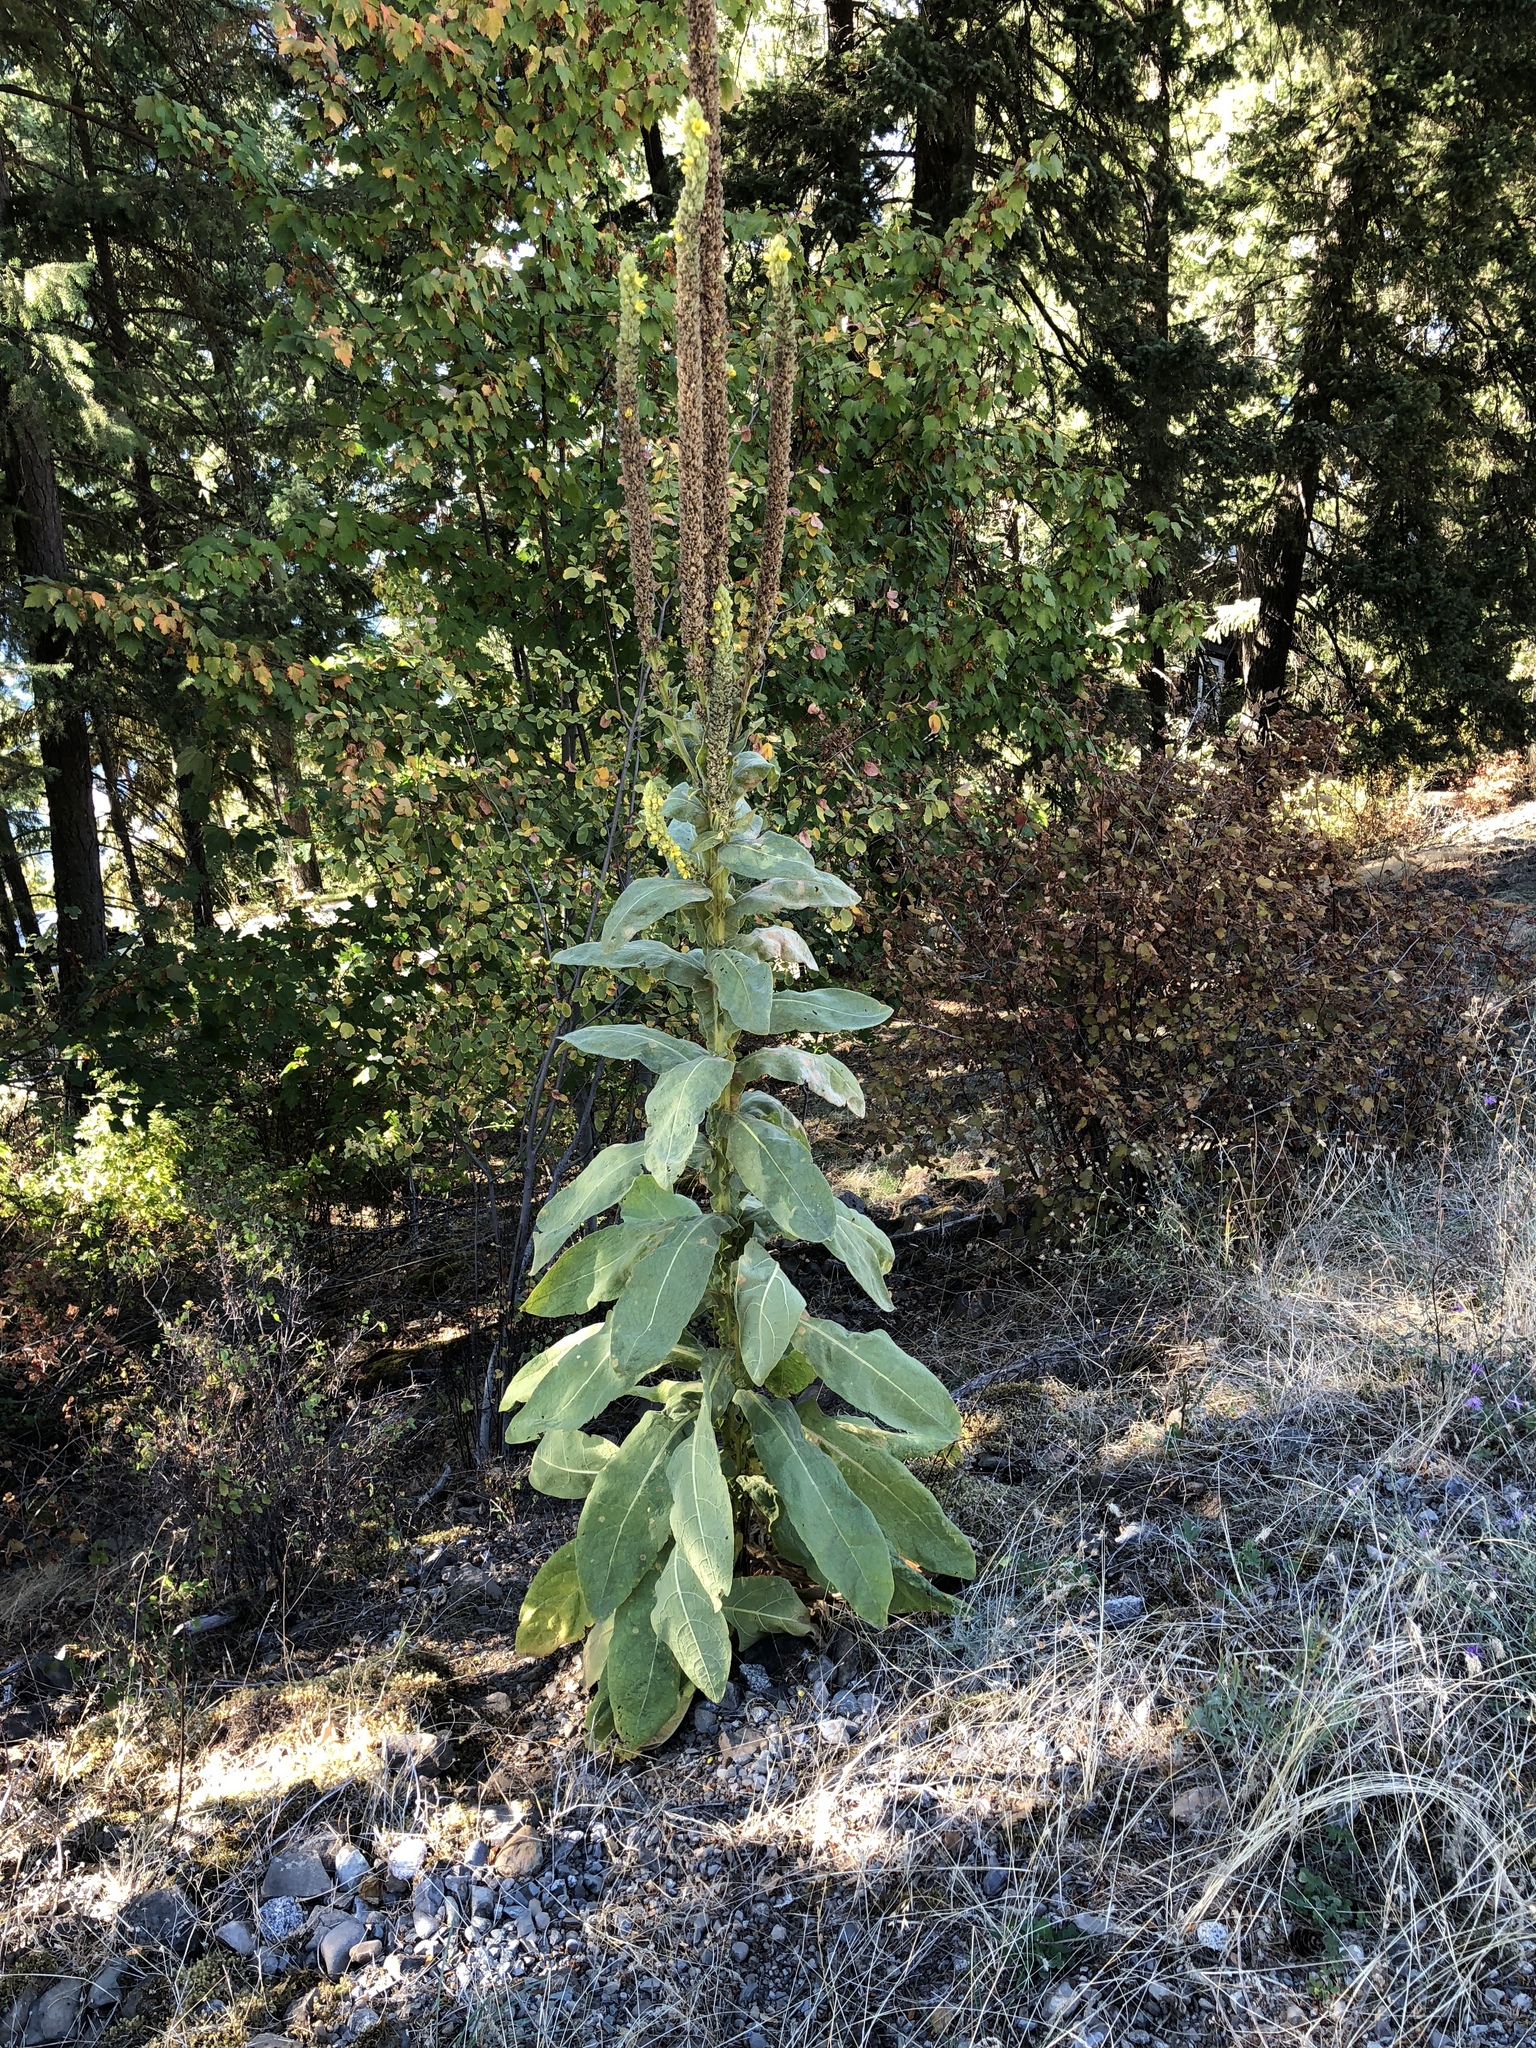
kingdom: Plantae
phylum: Tracheophyta
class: Magnoliopsida
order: Lamiales
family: Scrophulariaceae
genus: Verbascum
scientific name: Verbascum thapsus
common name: Common mullein
